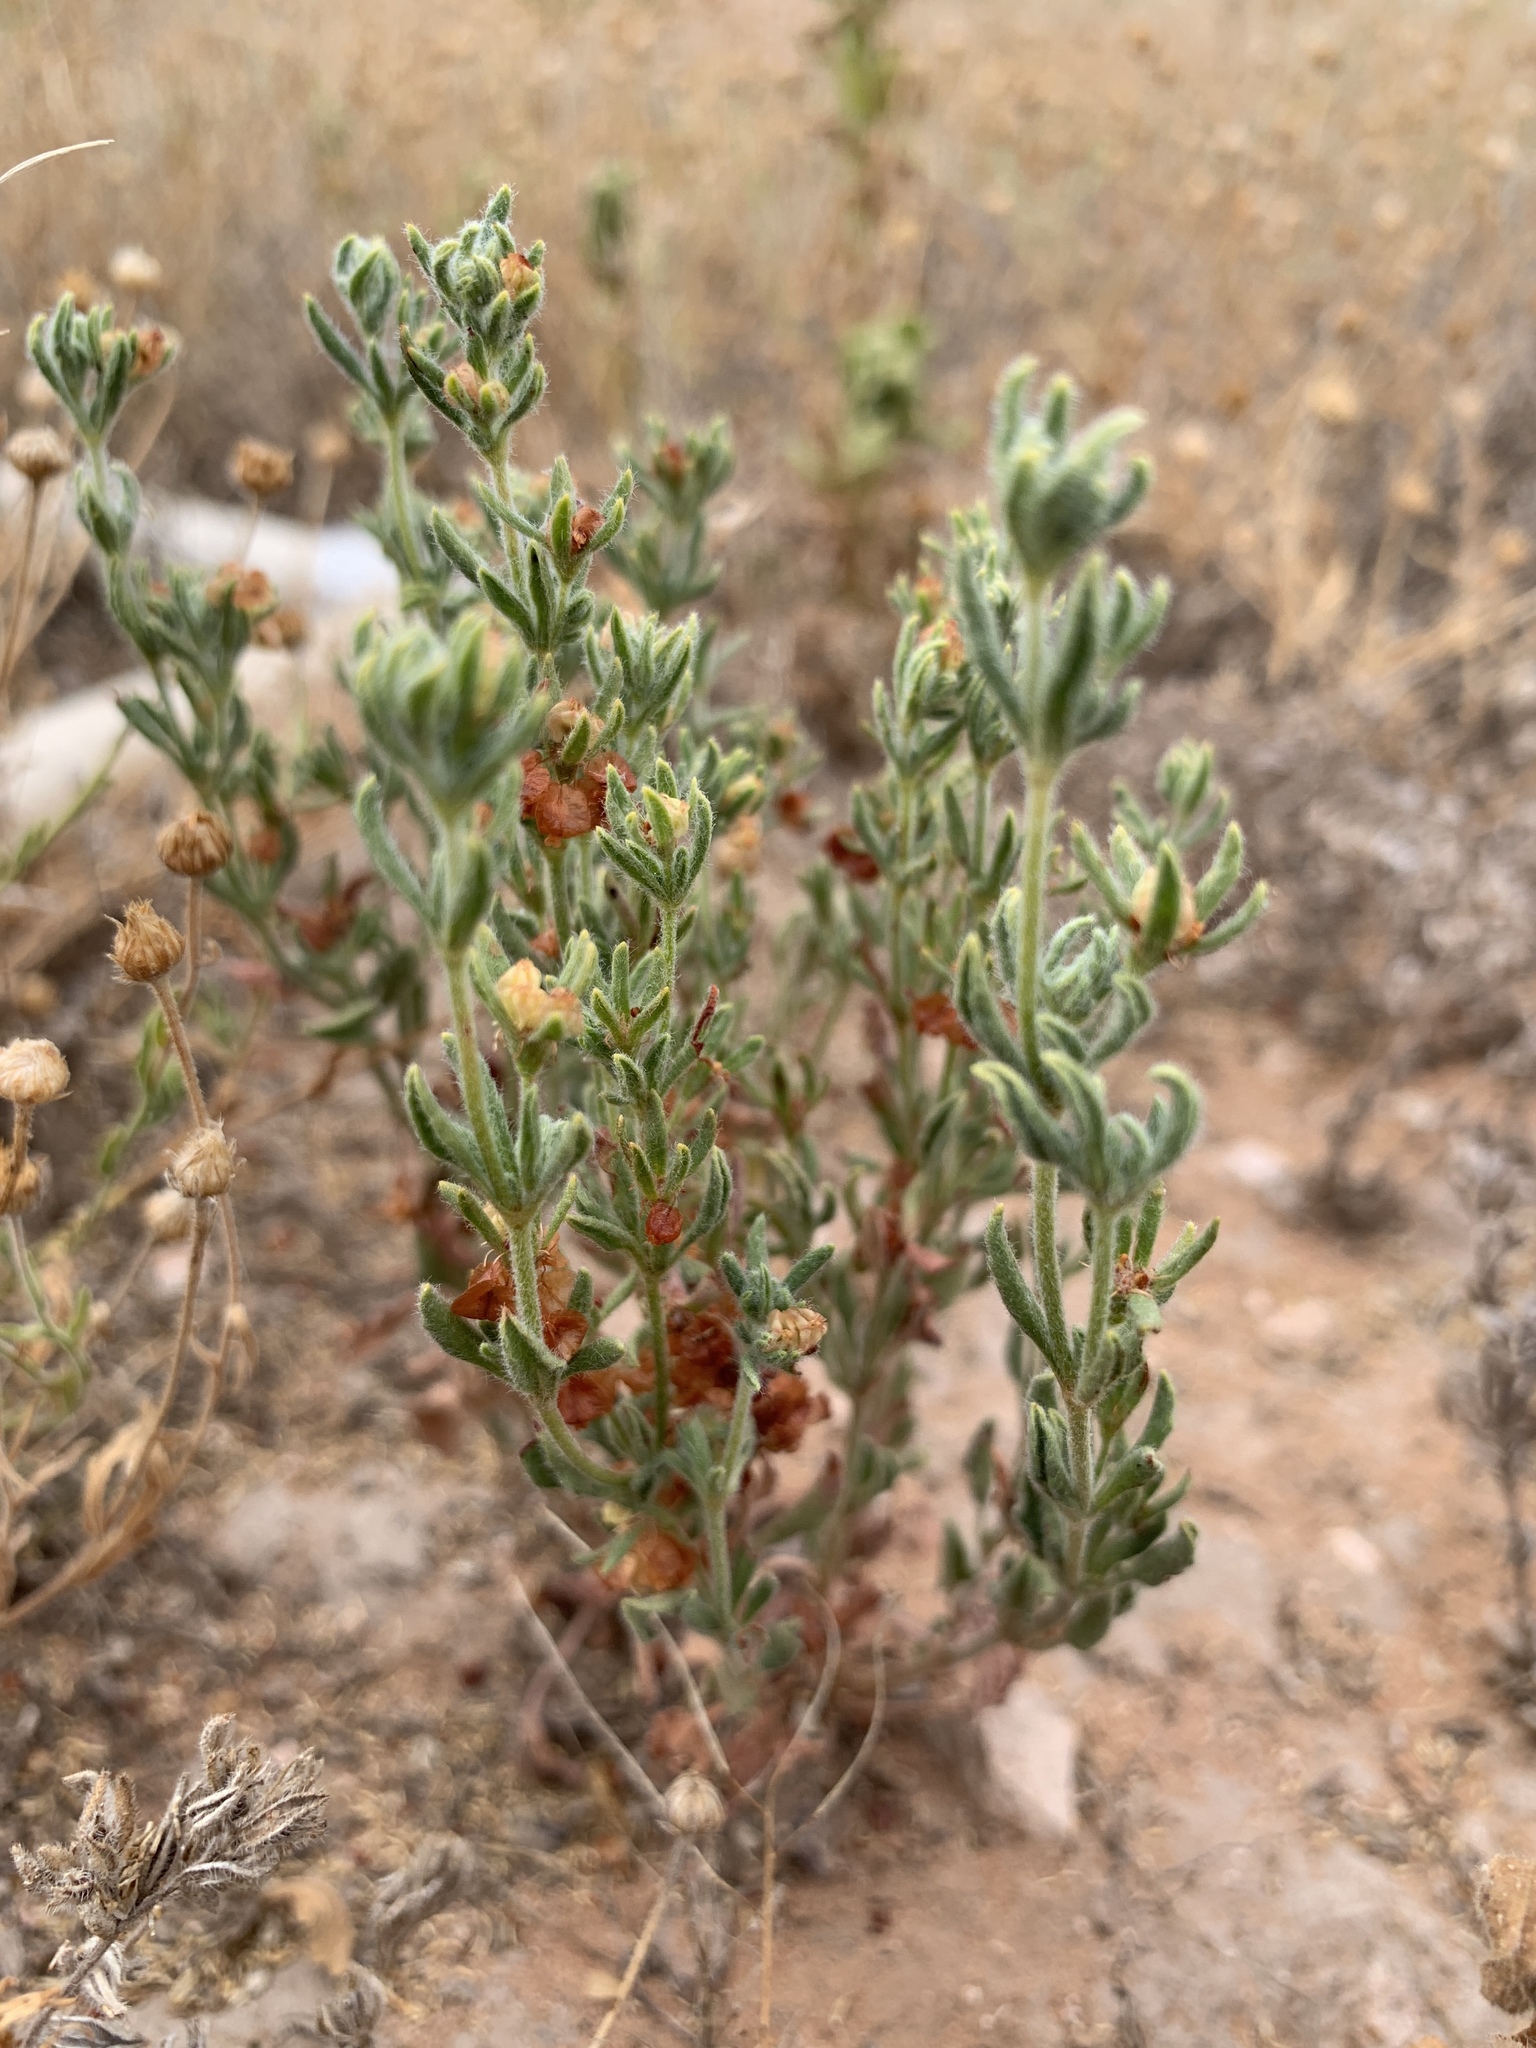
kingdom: Plantae
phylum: Tracheophyta
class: Magnoliopsida
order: Caryophyllales
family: Polygonaceae
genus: Eriogonum
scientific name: Eriogonum abertianum
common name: Abert's wild buckwheat
